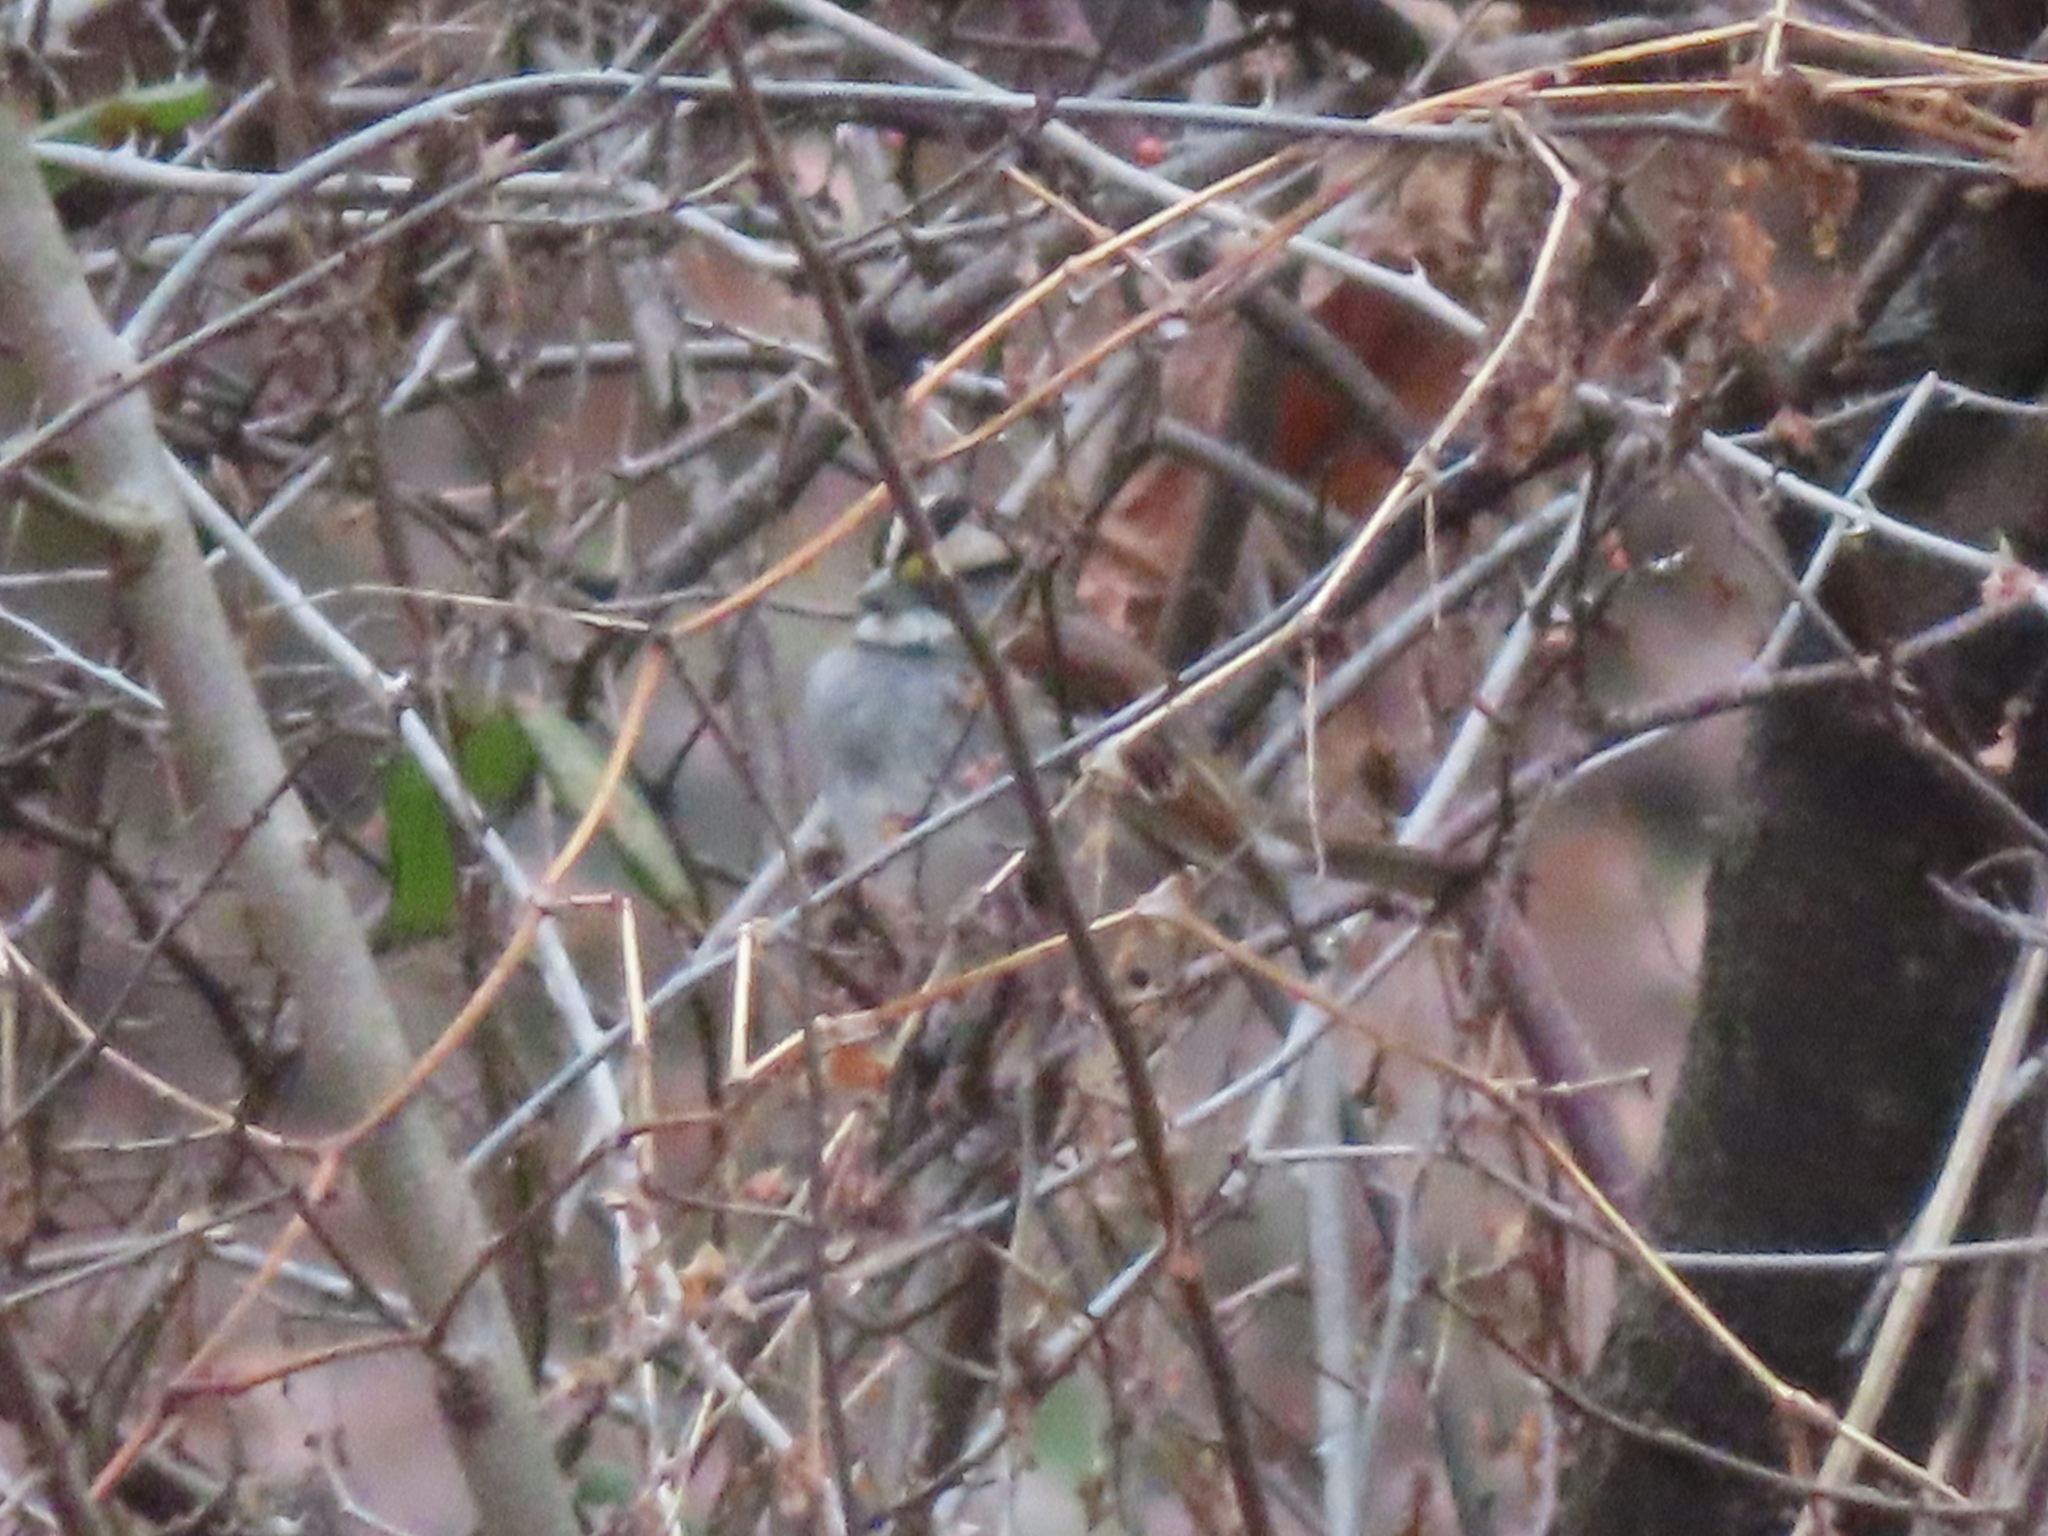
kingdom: Animalia
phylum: Chordata
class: Aves
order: Passeriformes
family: Passerellidae
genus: Zonotrichia
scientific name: Zonotrichia albicollis
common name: White-throated sparrow
